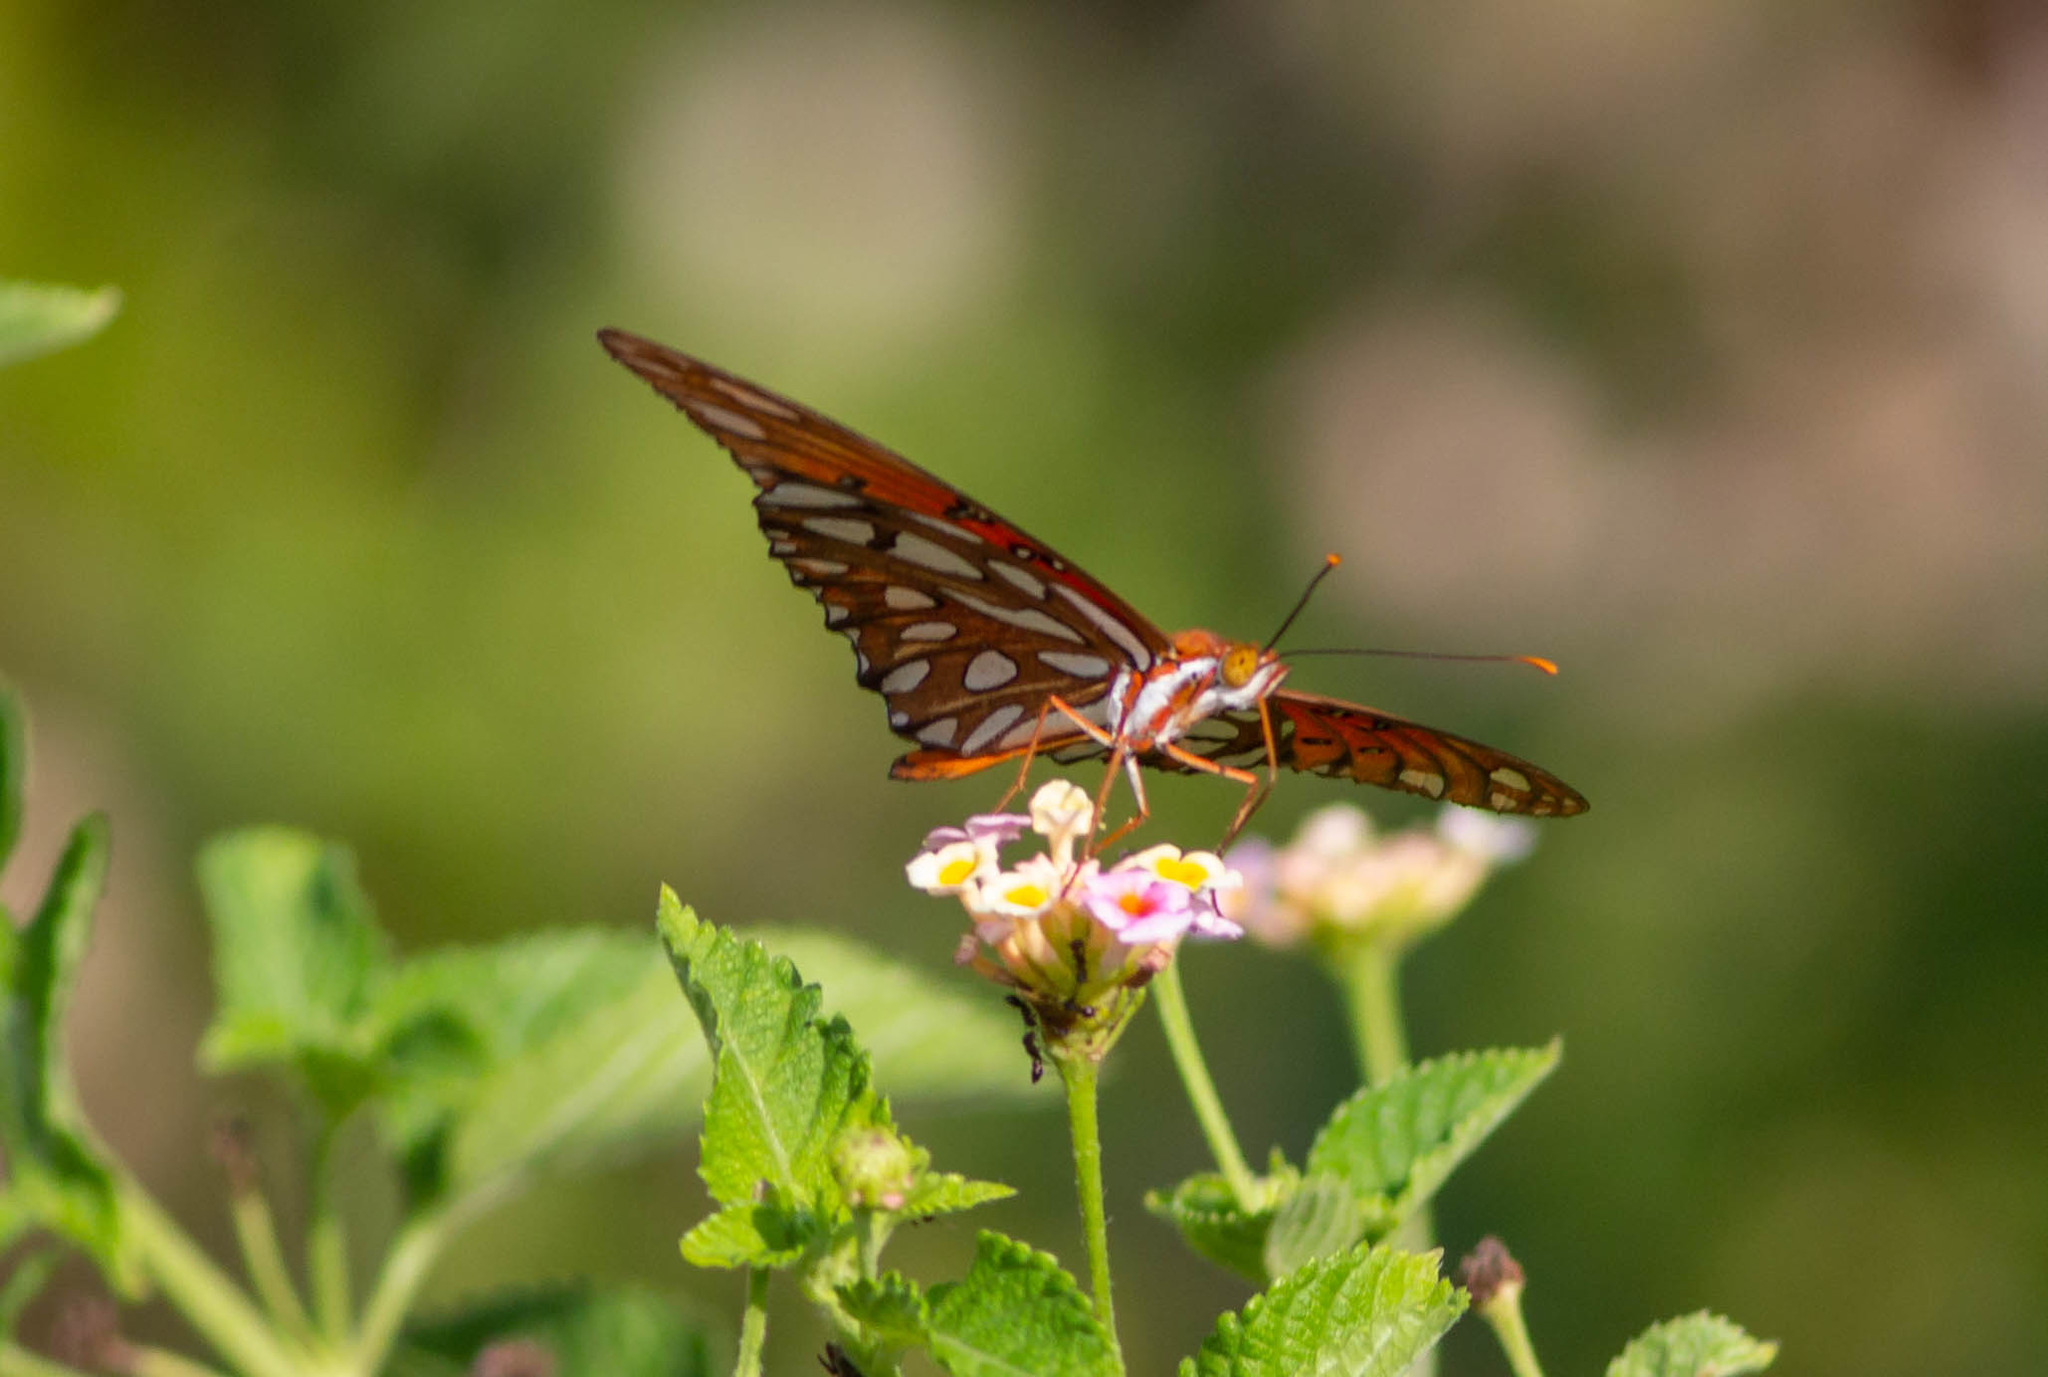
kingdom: Animalia
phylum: Arthropoda
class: Insecta
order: Lepidoptera
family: Nymphalidae
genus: Dione
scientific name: Dione vanillae
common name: Gulf fritillary
